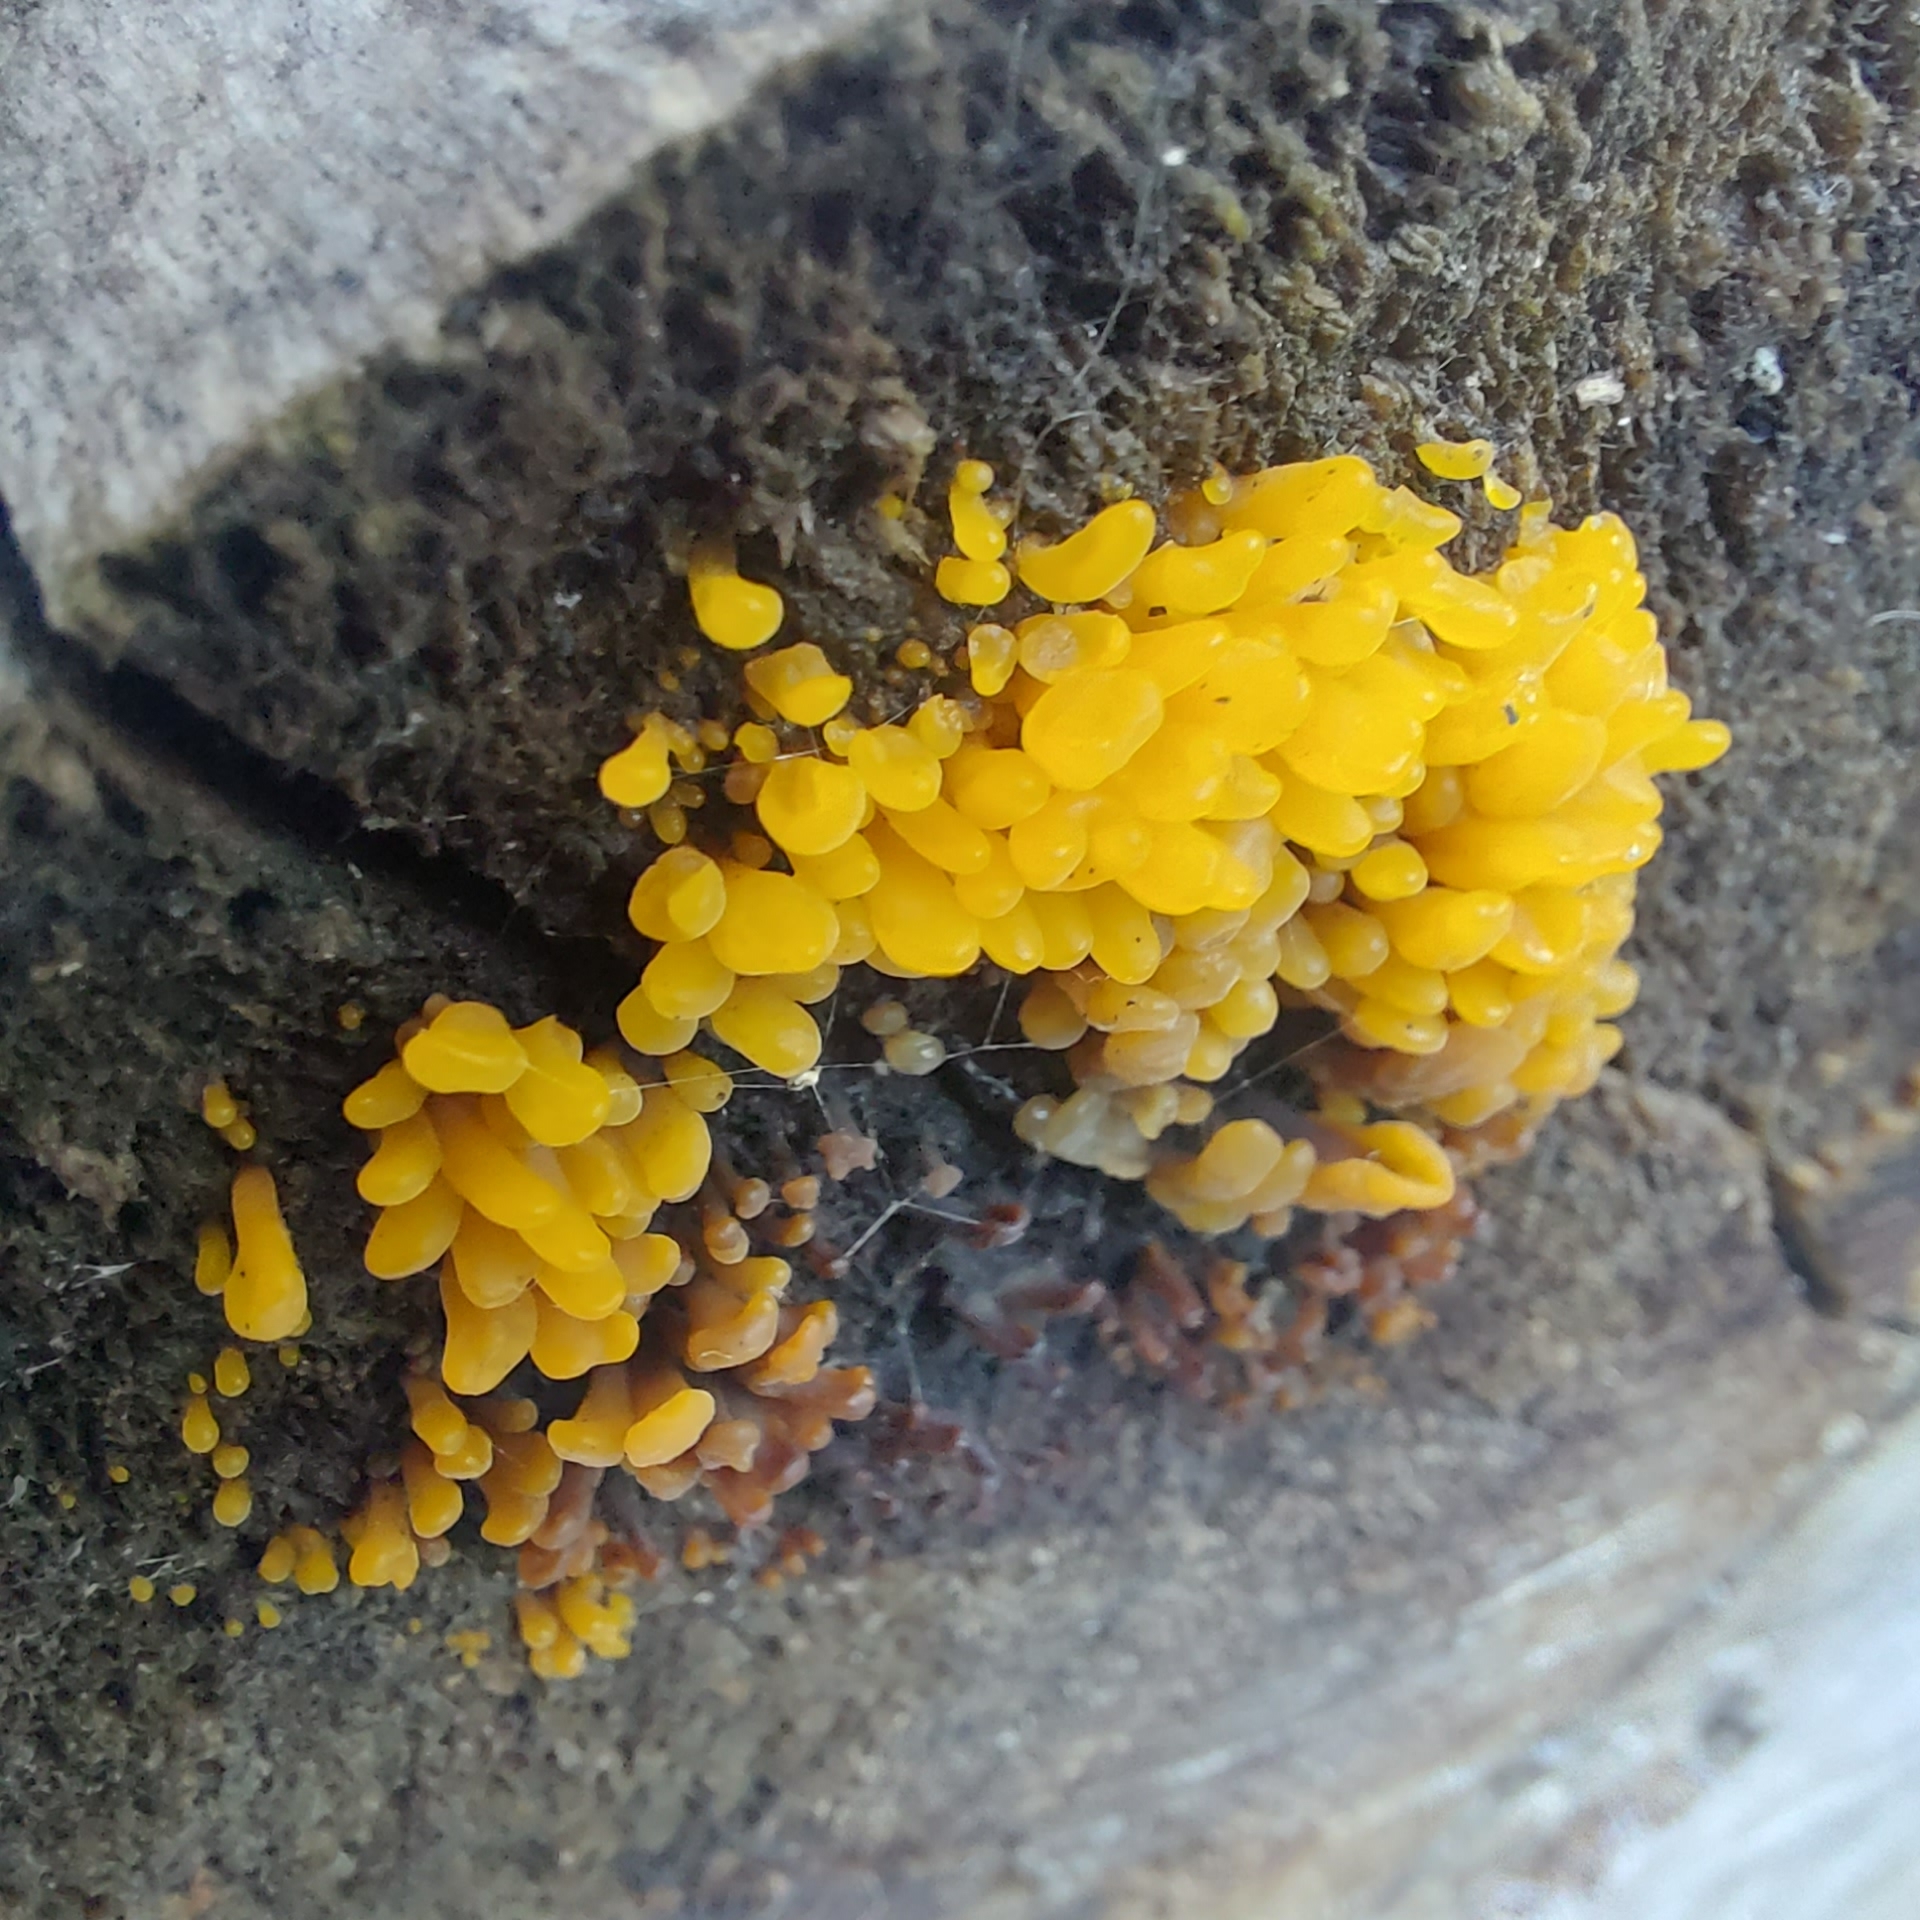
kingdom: Fungi
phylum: Basidiomycota
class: Dacrymycetes
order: Dacrymycetales
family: Dacrymycetaceae
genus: Dacrymyces
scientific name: Dacrymyces spathularius
